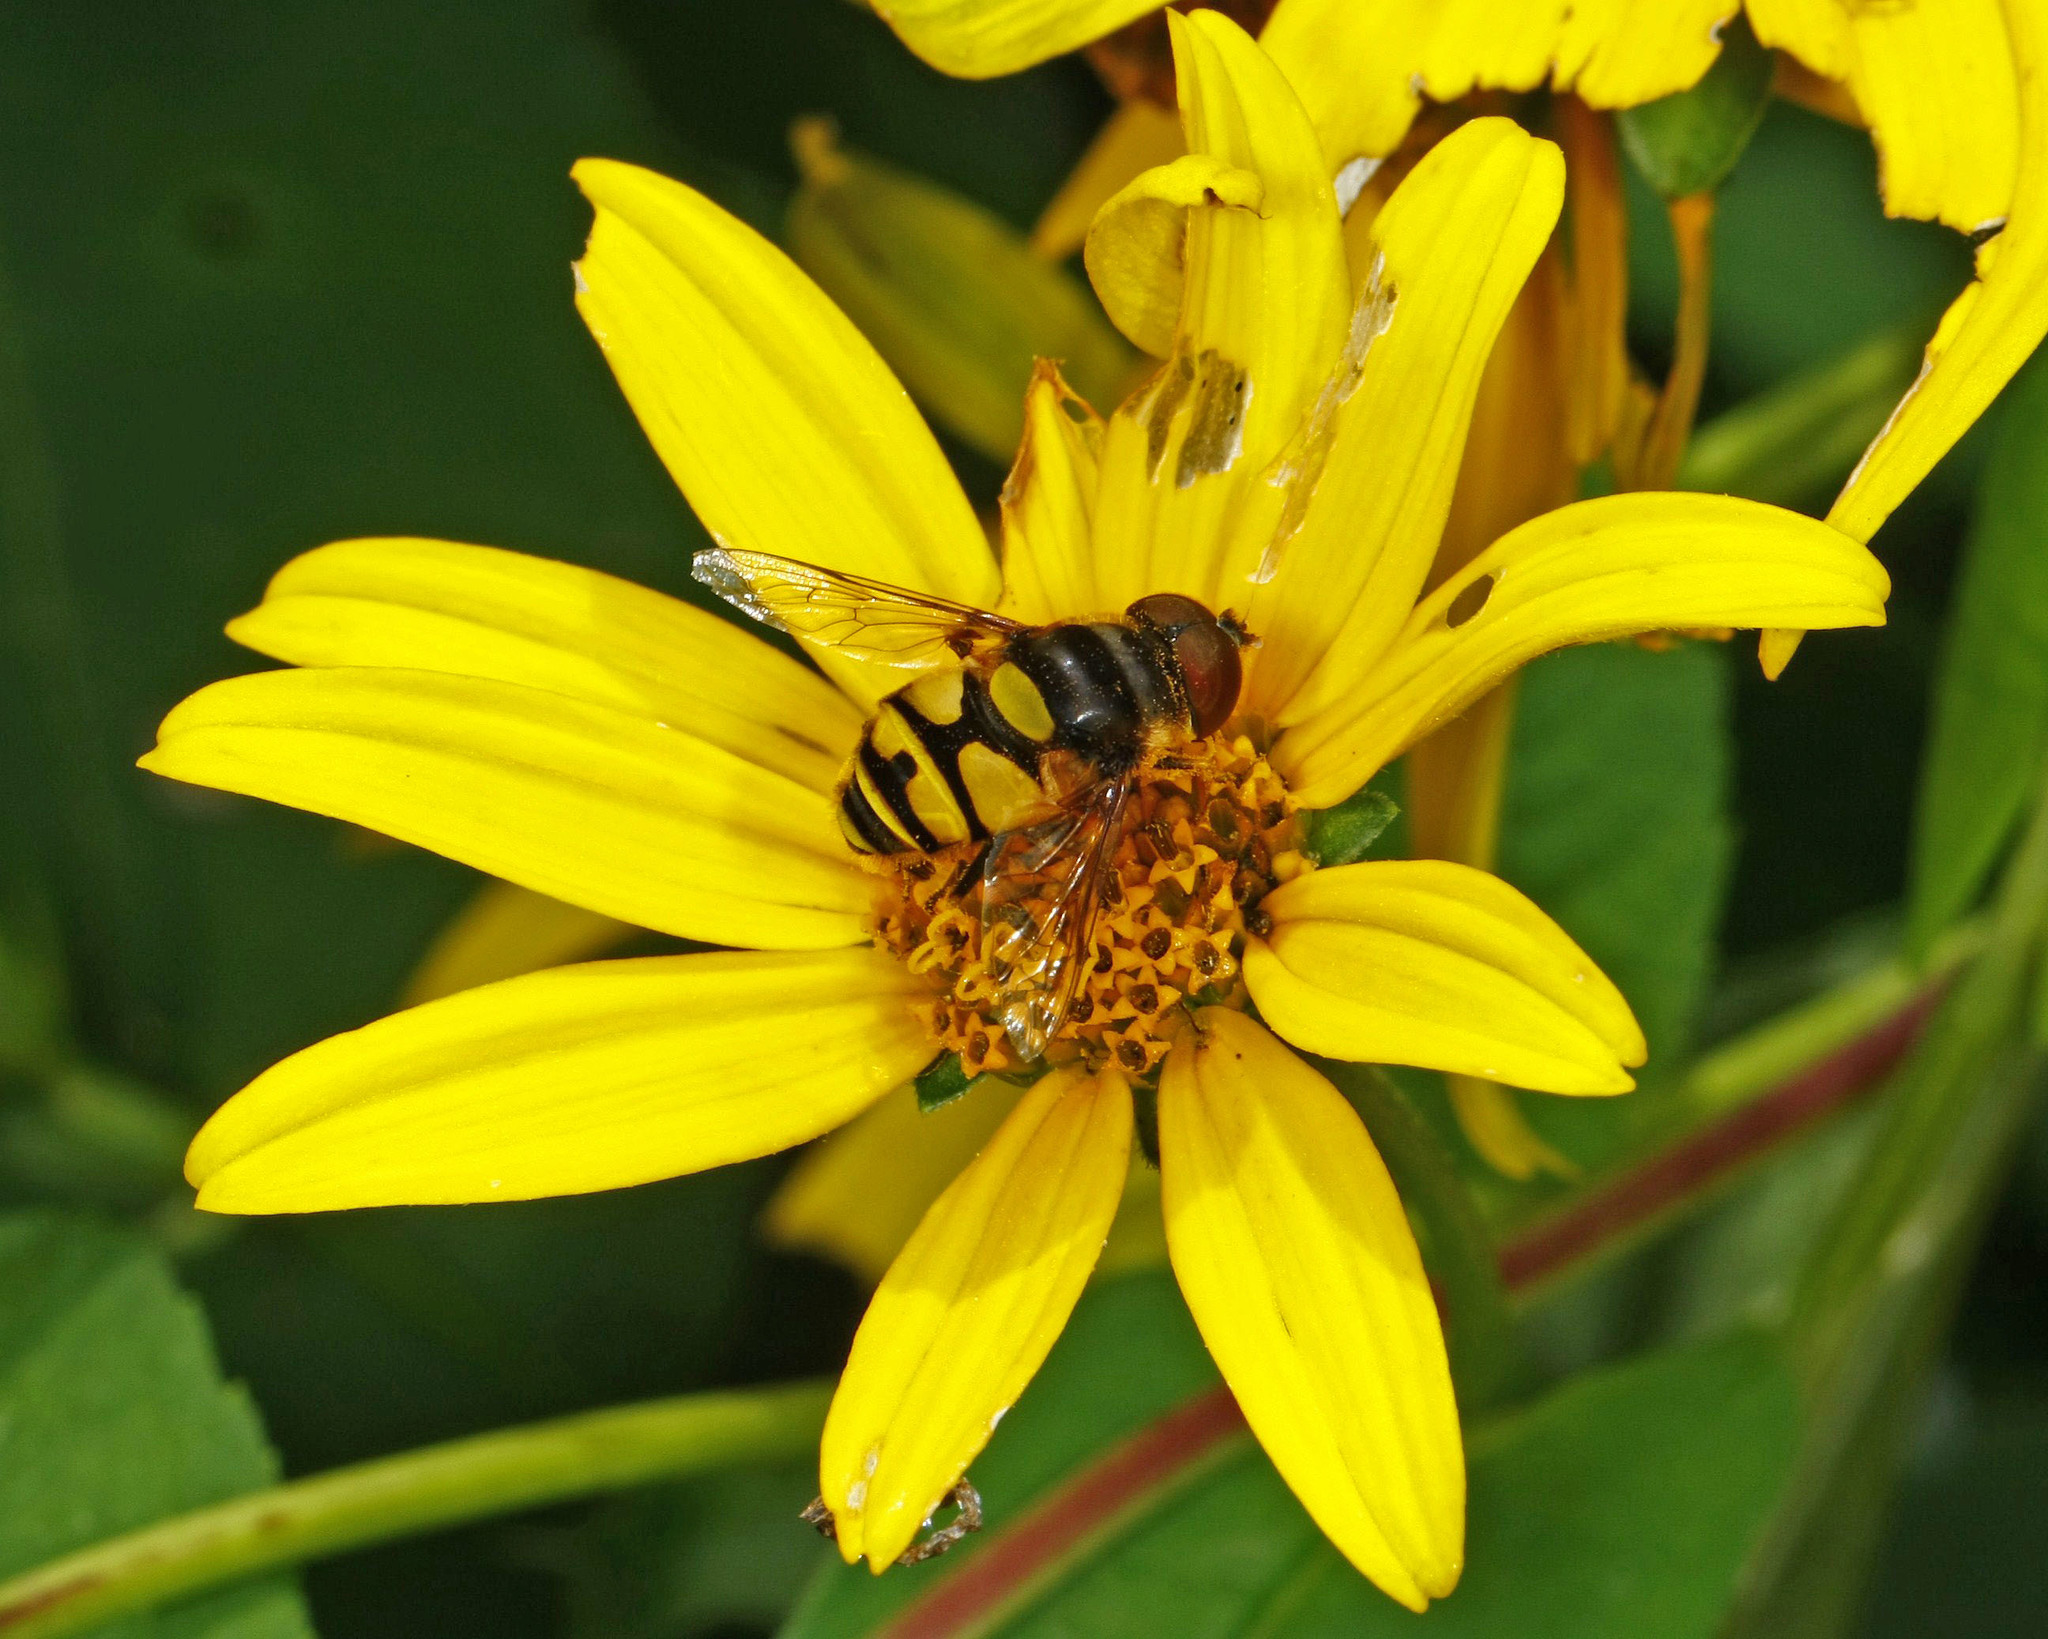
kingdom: Animalia
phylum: Arthropoda
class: Insecta
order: Diptera
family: Syrphidae
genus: Eristalis
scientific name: Eristalis transversa
